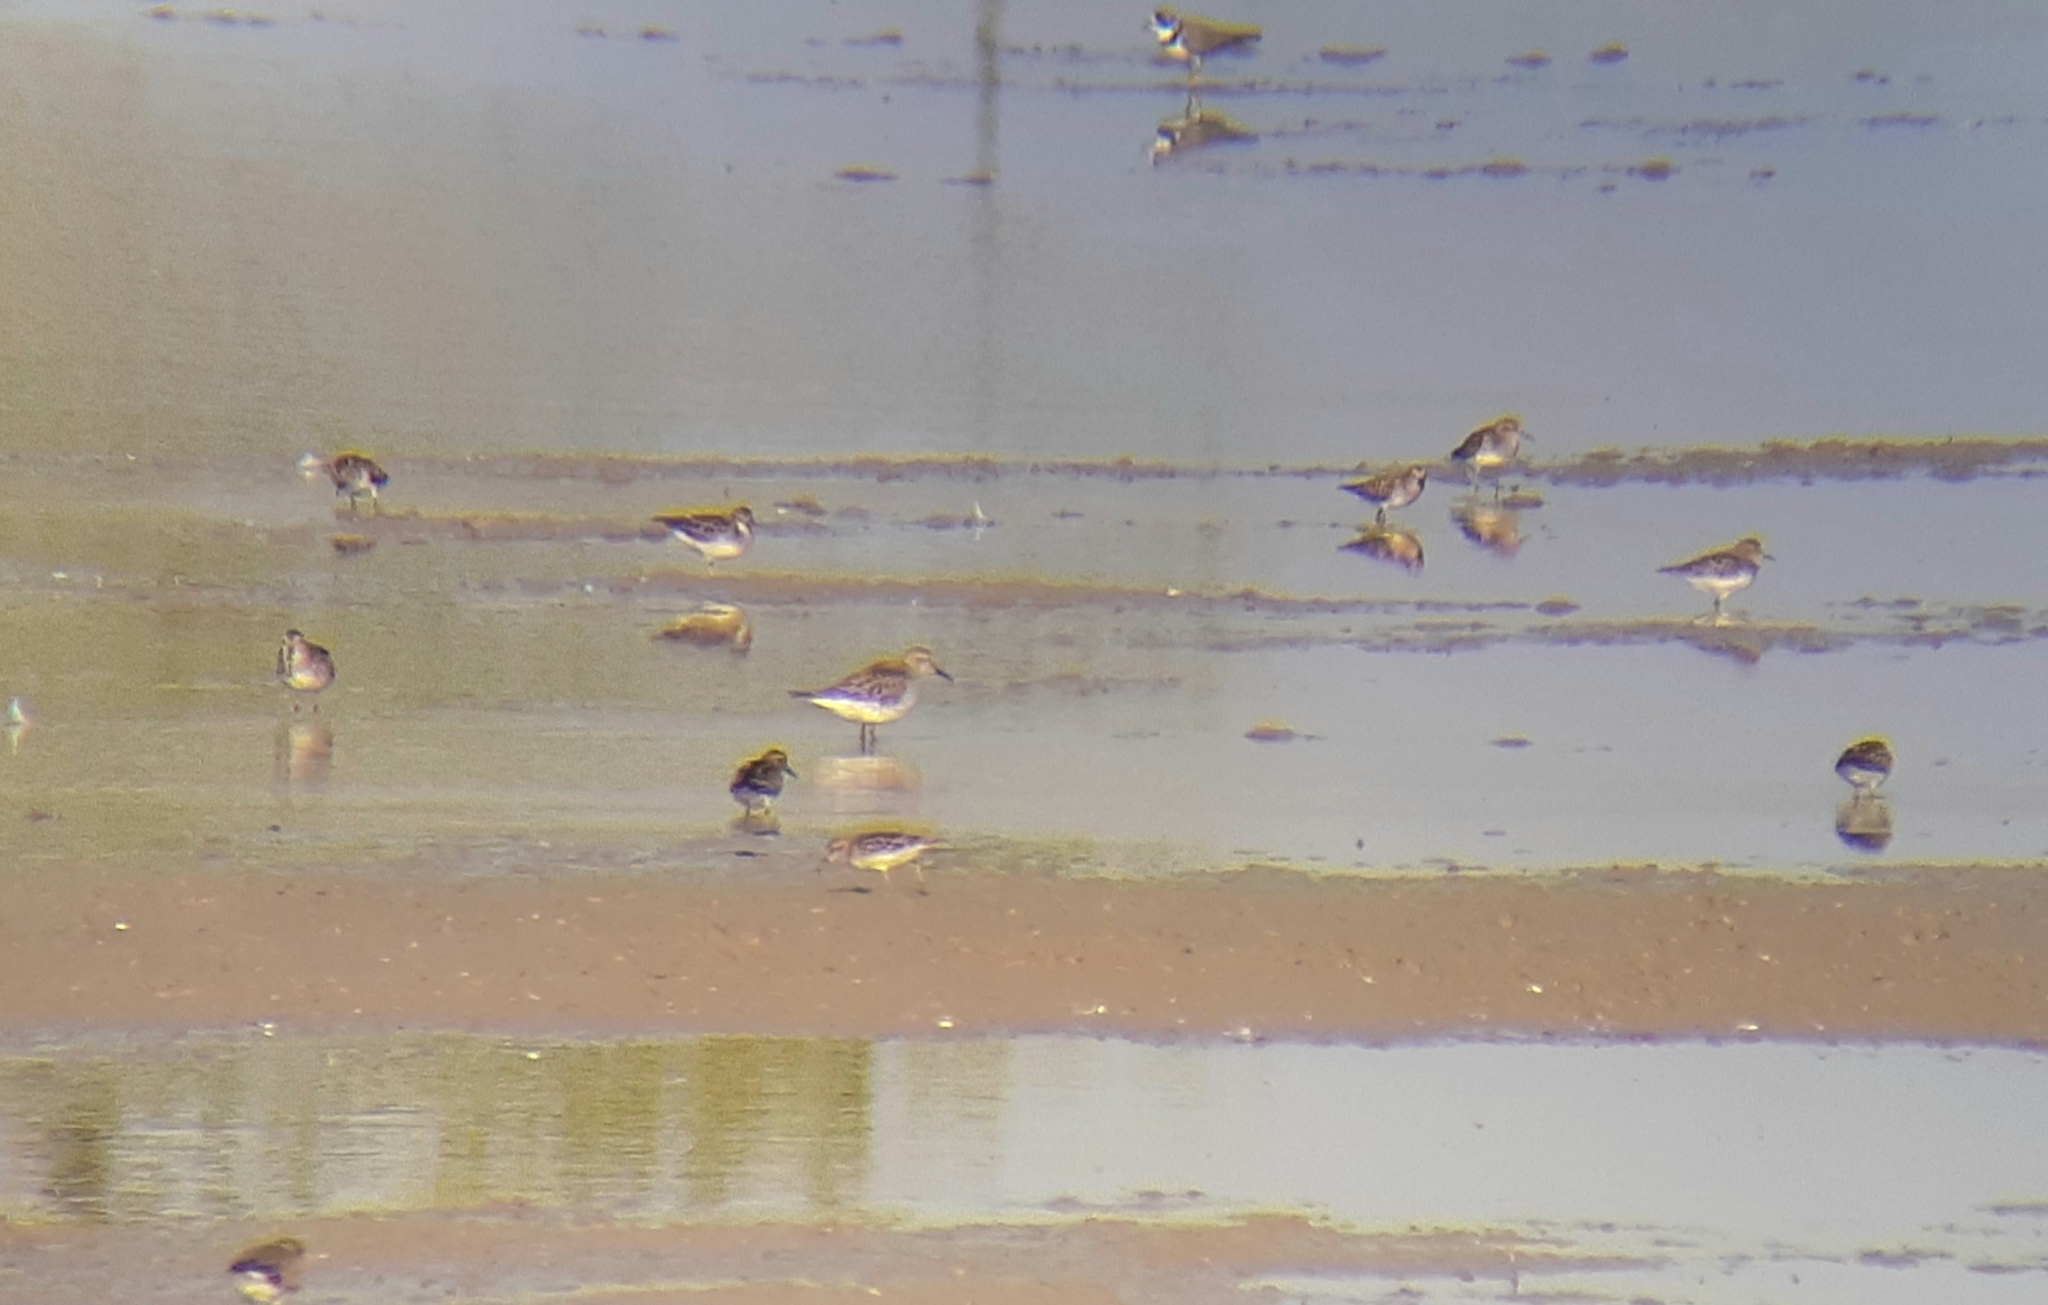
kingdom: Animalia
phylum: Chordata
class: Aves
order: Charadriiformes
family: Scolopacidae
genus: Calidris
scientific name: Calidris fuscicollis
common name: White-rumped sandpiper
